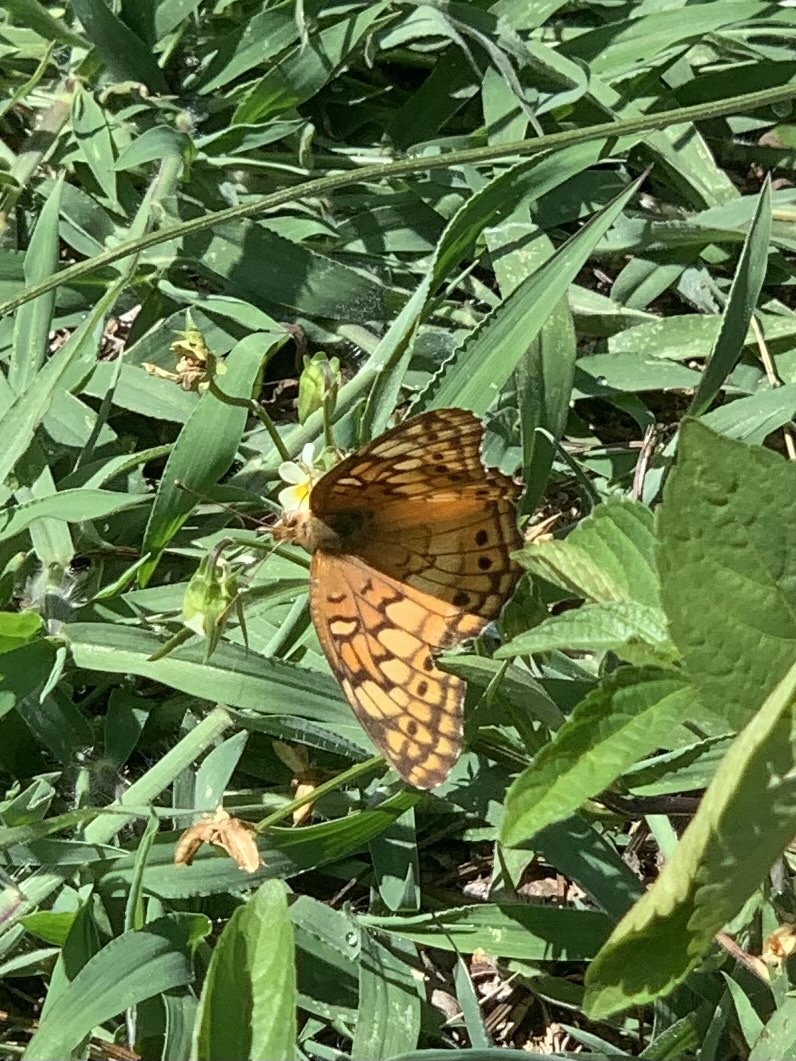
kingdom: Animalia
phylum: Arthropoda
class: Insecta
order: Lepidoptera
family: Nymphalidae
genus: Euptoieta
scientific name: Euptoieta claudia
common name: Variegated fritillary
